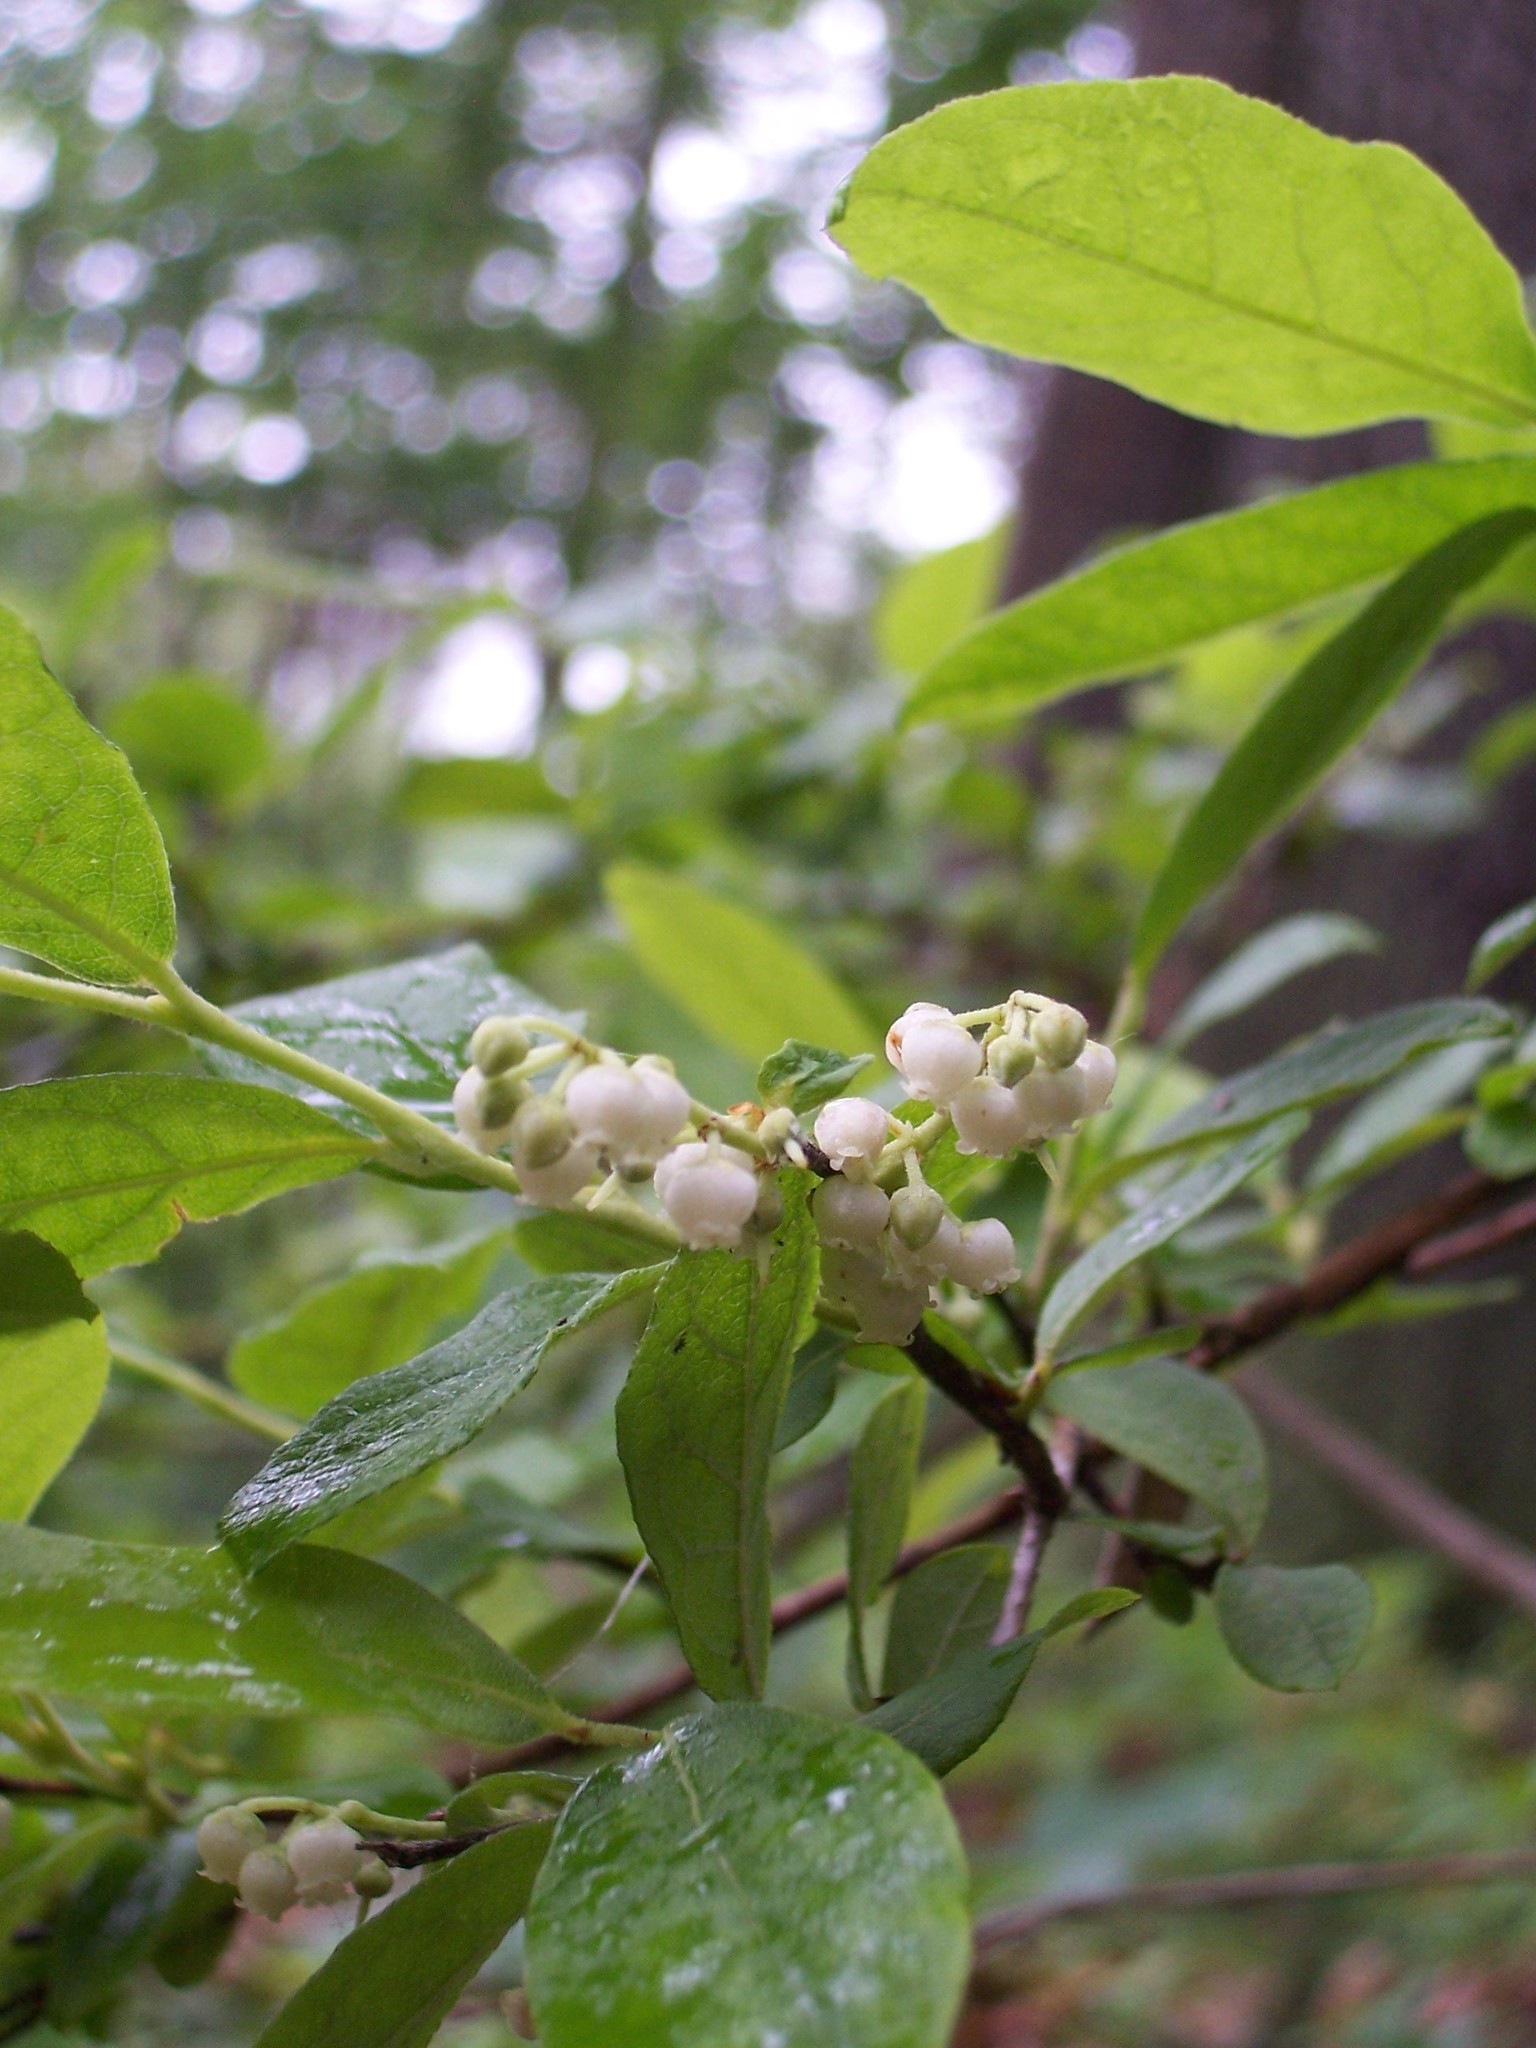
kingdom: Plantae
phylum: Tracheophyta
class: Magnoliopsida
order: Ericales
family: Ericaceae
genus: Lyonia
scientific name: Lyonia ligustrina
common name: Maleberry
